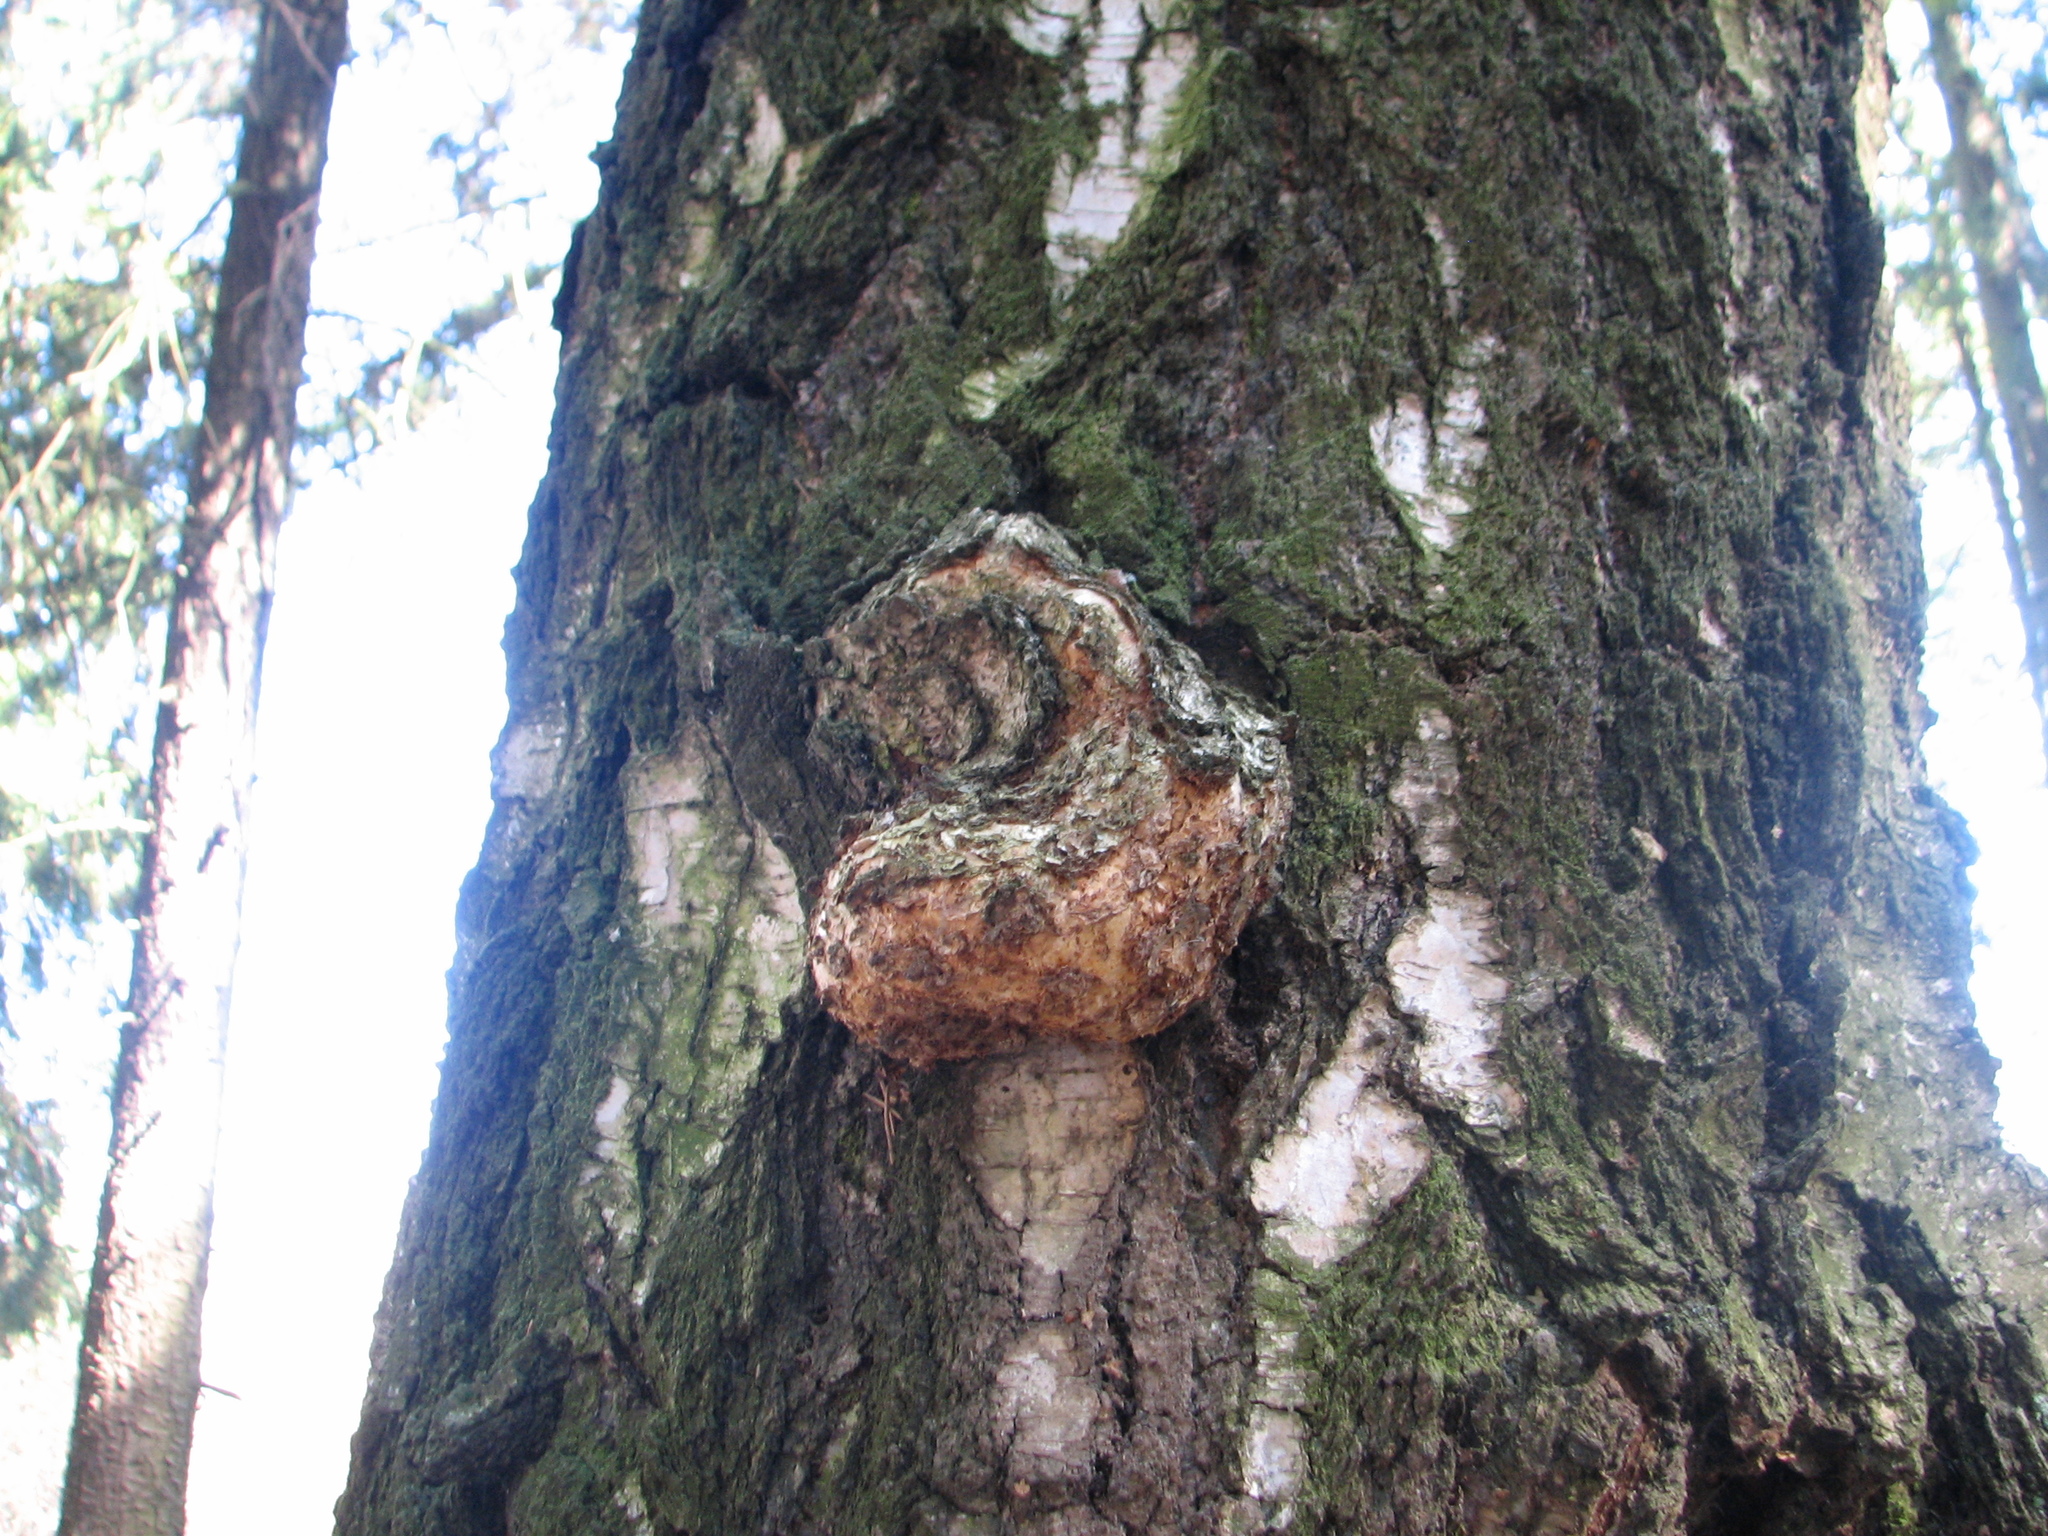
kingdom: Bacteria
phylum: Proteobacteria
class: Alphaproteobacteria
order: Rhizobiales
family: Rhizobiaceae
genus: Rhizobium
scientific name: Rhizobium Agrobacterium radiobacter
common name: Bacterial crown gall
